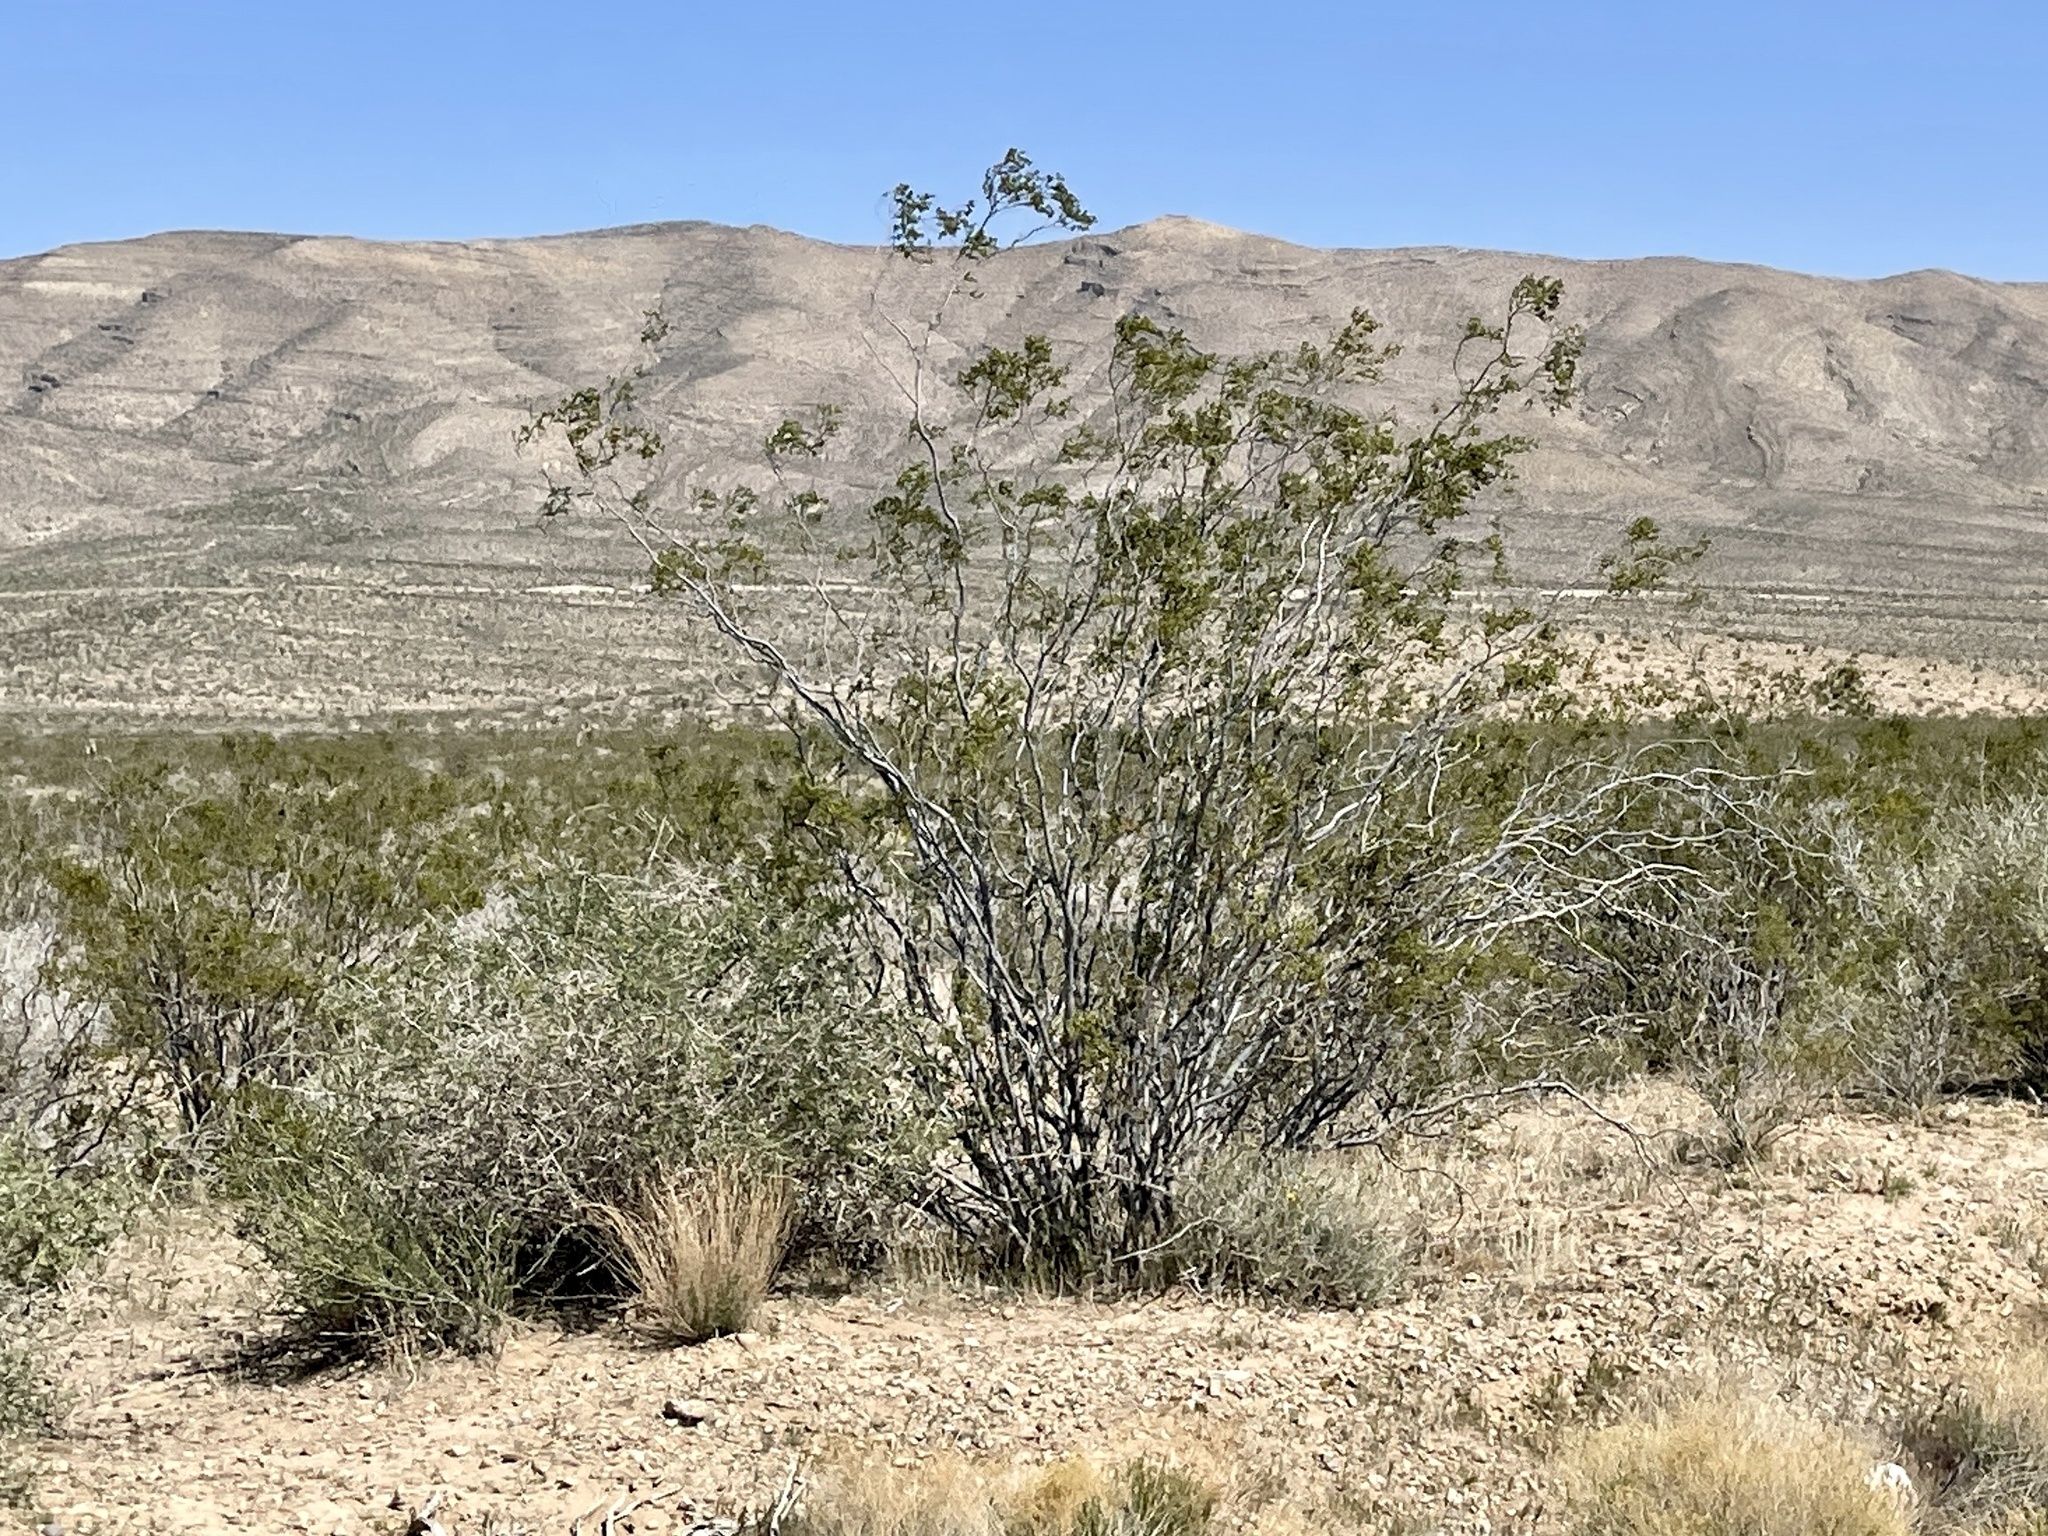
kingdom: Plantae
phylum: Tracheophyta
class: Magnoliopsida
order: Zygophyllales
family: Zygophyllaceae
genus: Larrea
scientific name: Larrea tridentata
